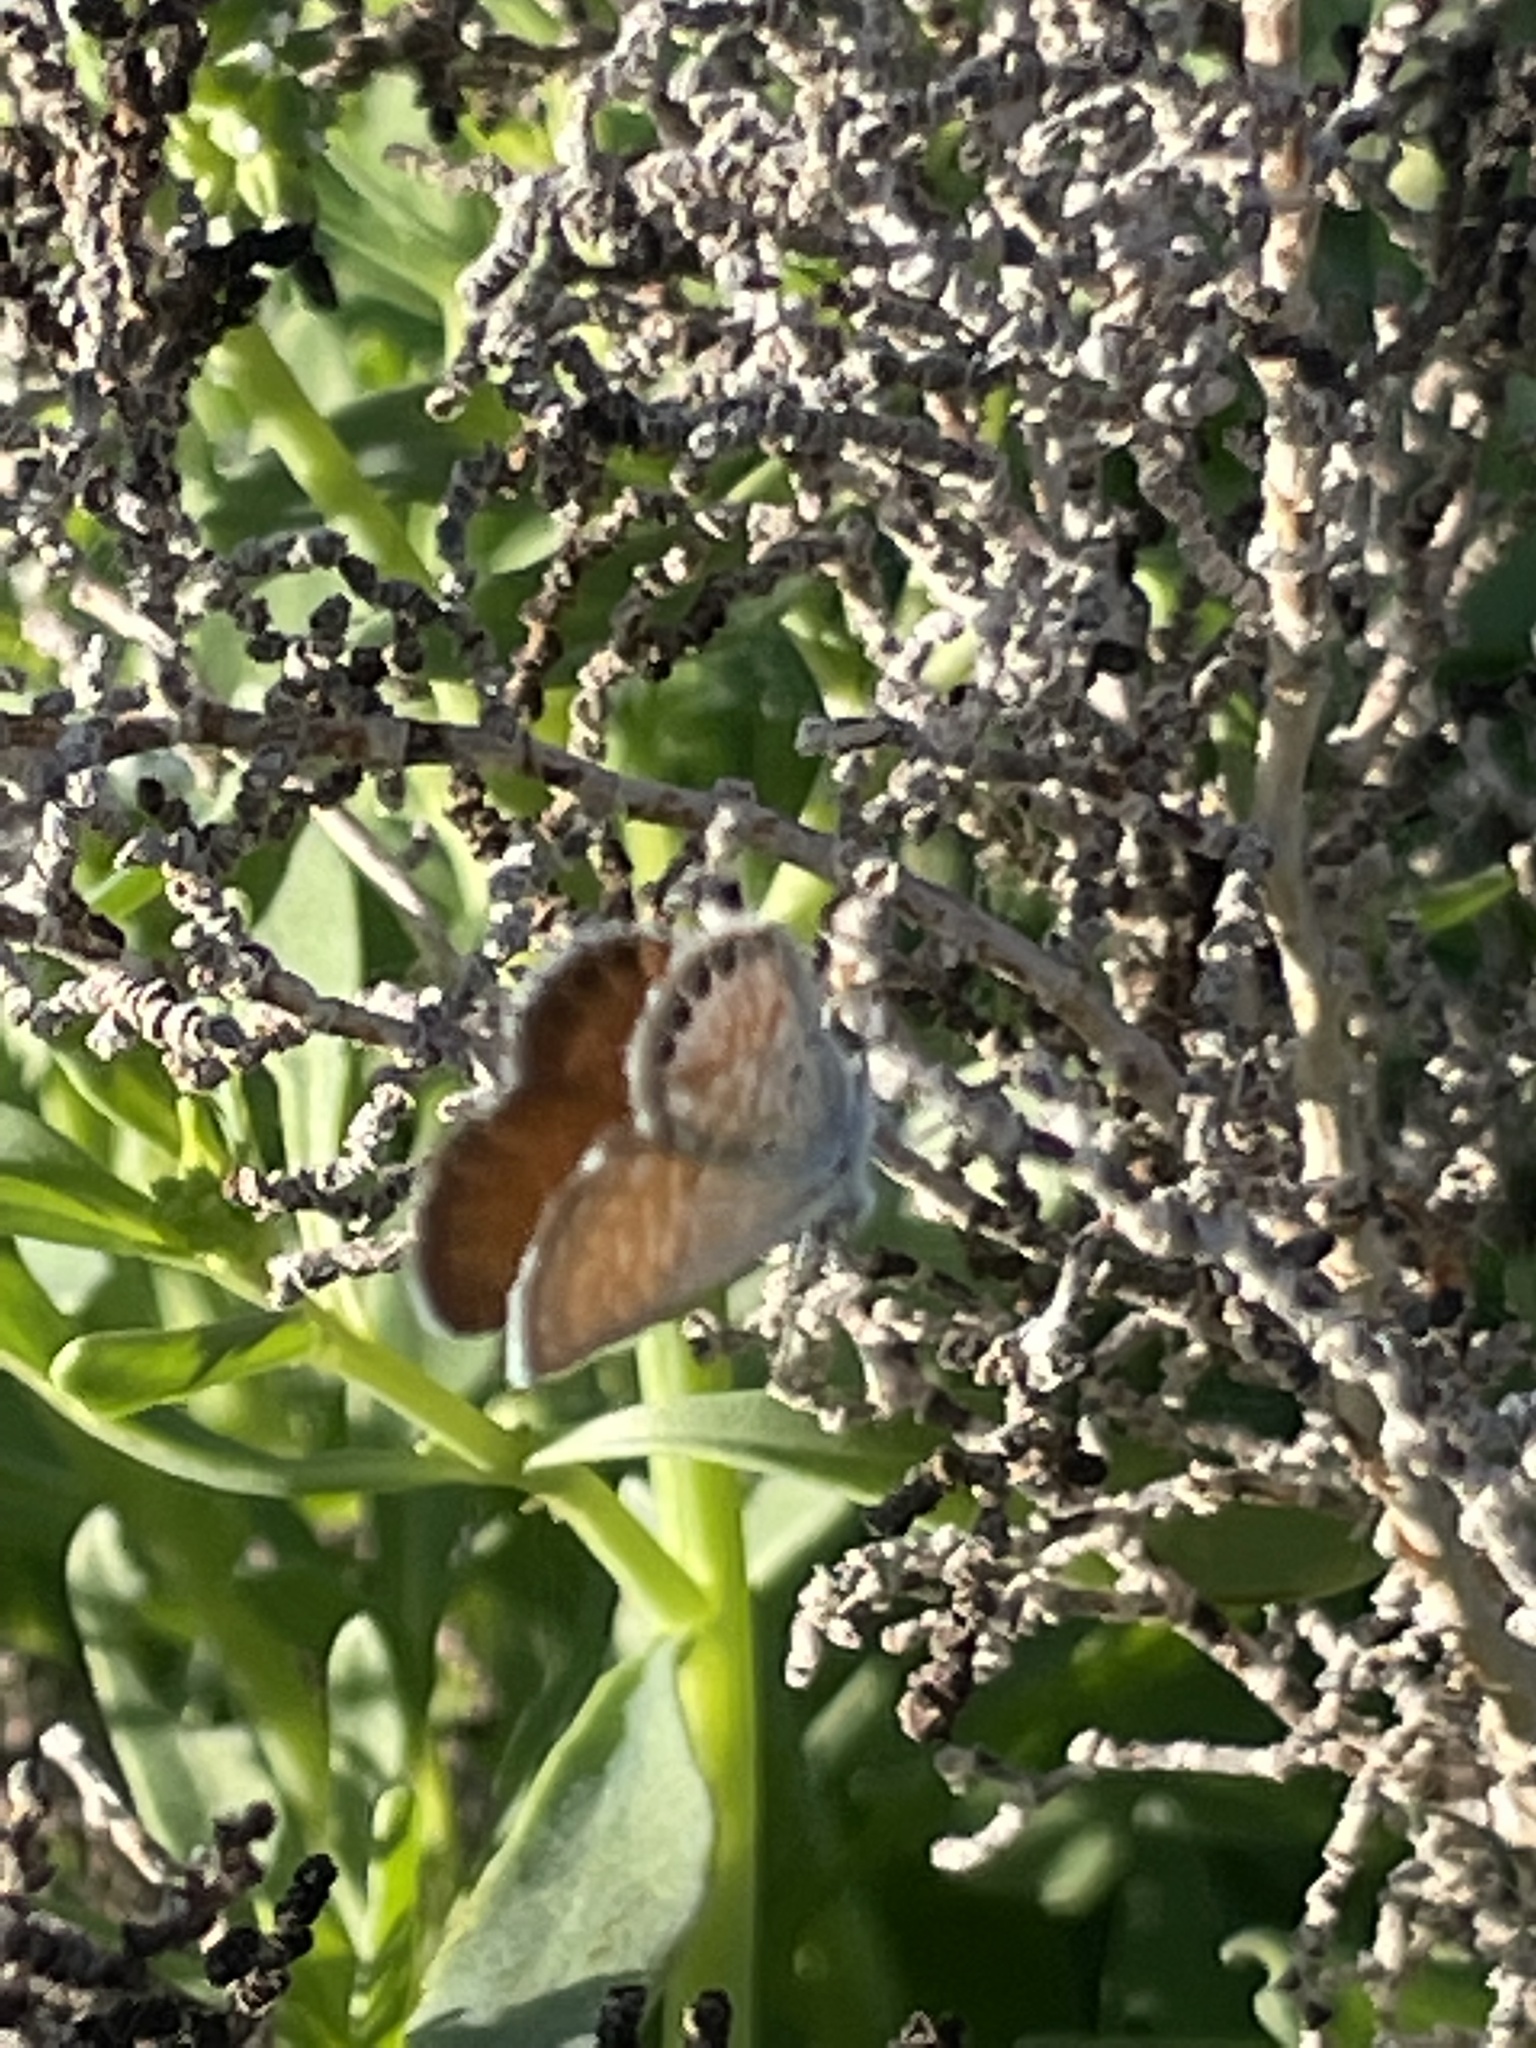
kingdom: Animalia
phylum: Arthropoda
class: Insecta
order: Lepidoptera
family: Lycaenidae
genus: Brephidium
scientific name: Brephidium exilis
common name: Pygmy blue
